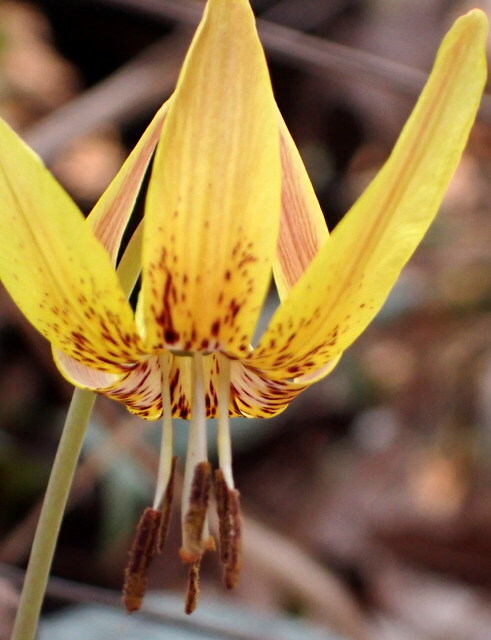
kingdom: Plantae
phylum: Tracheophyta
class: Liliopsida
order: Liliales
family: Liliaceae
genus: Erythronium
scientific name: Erythronium umbilicatum
